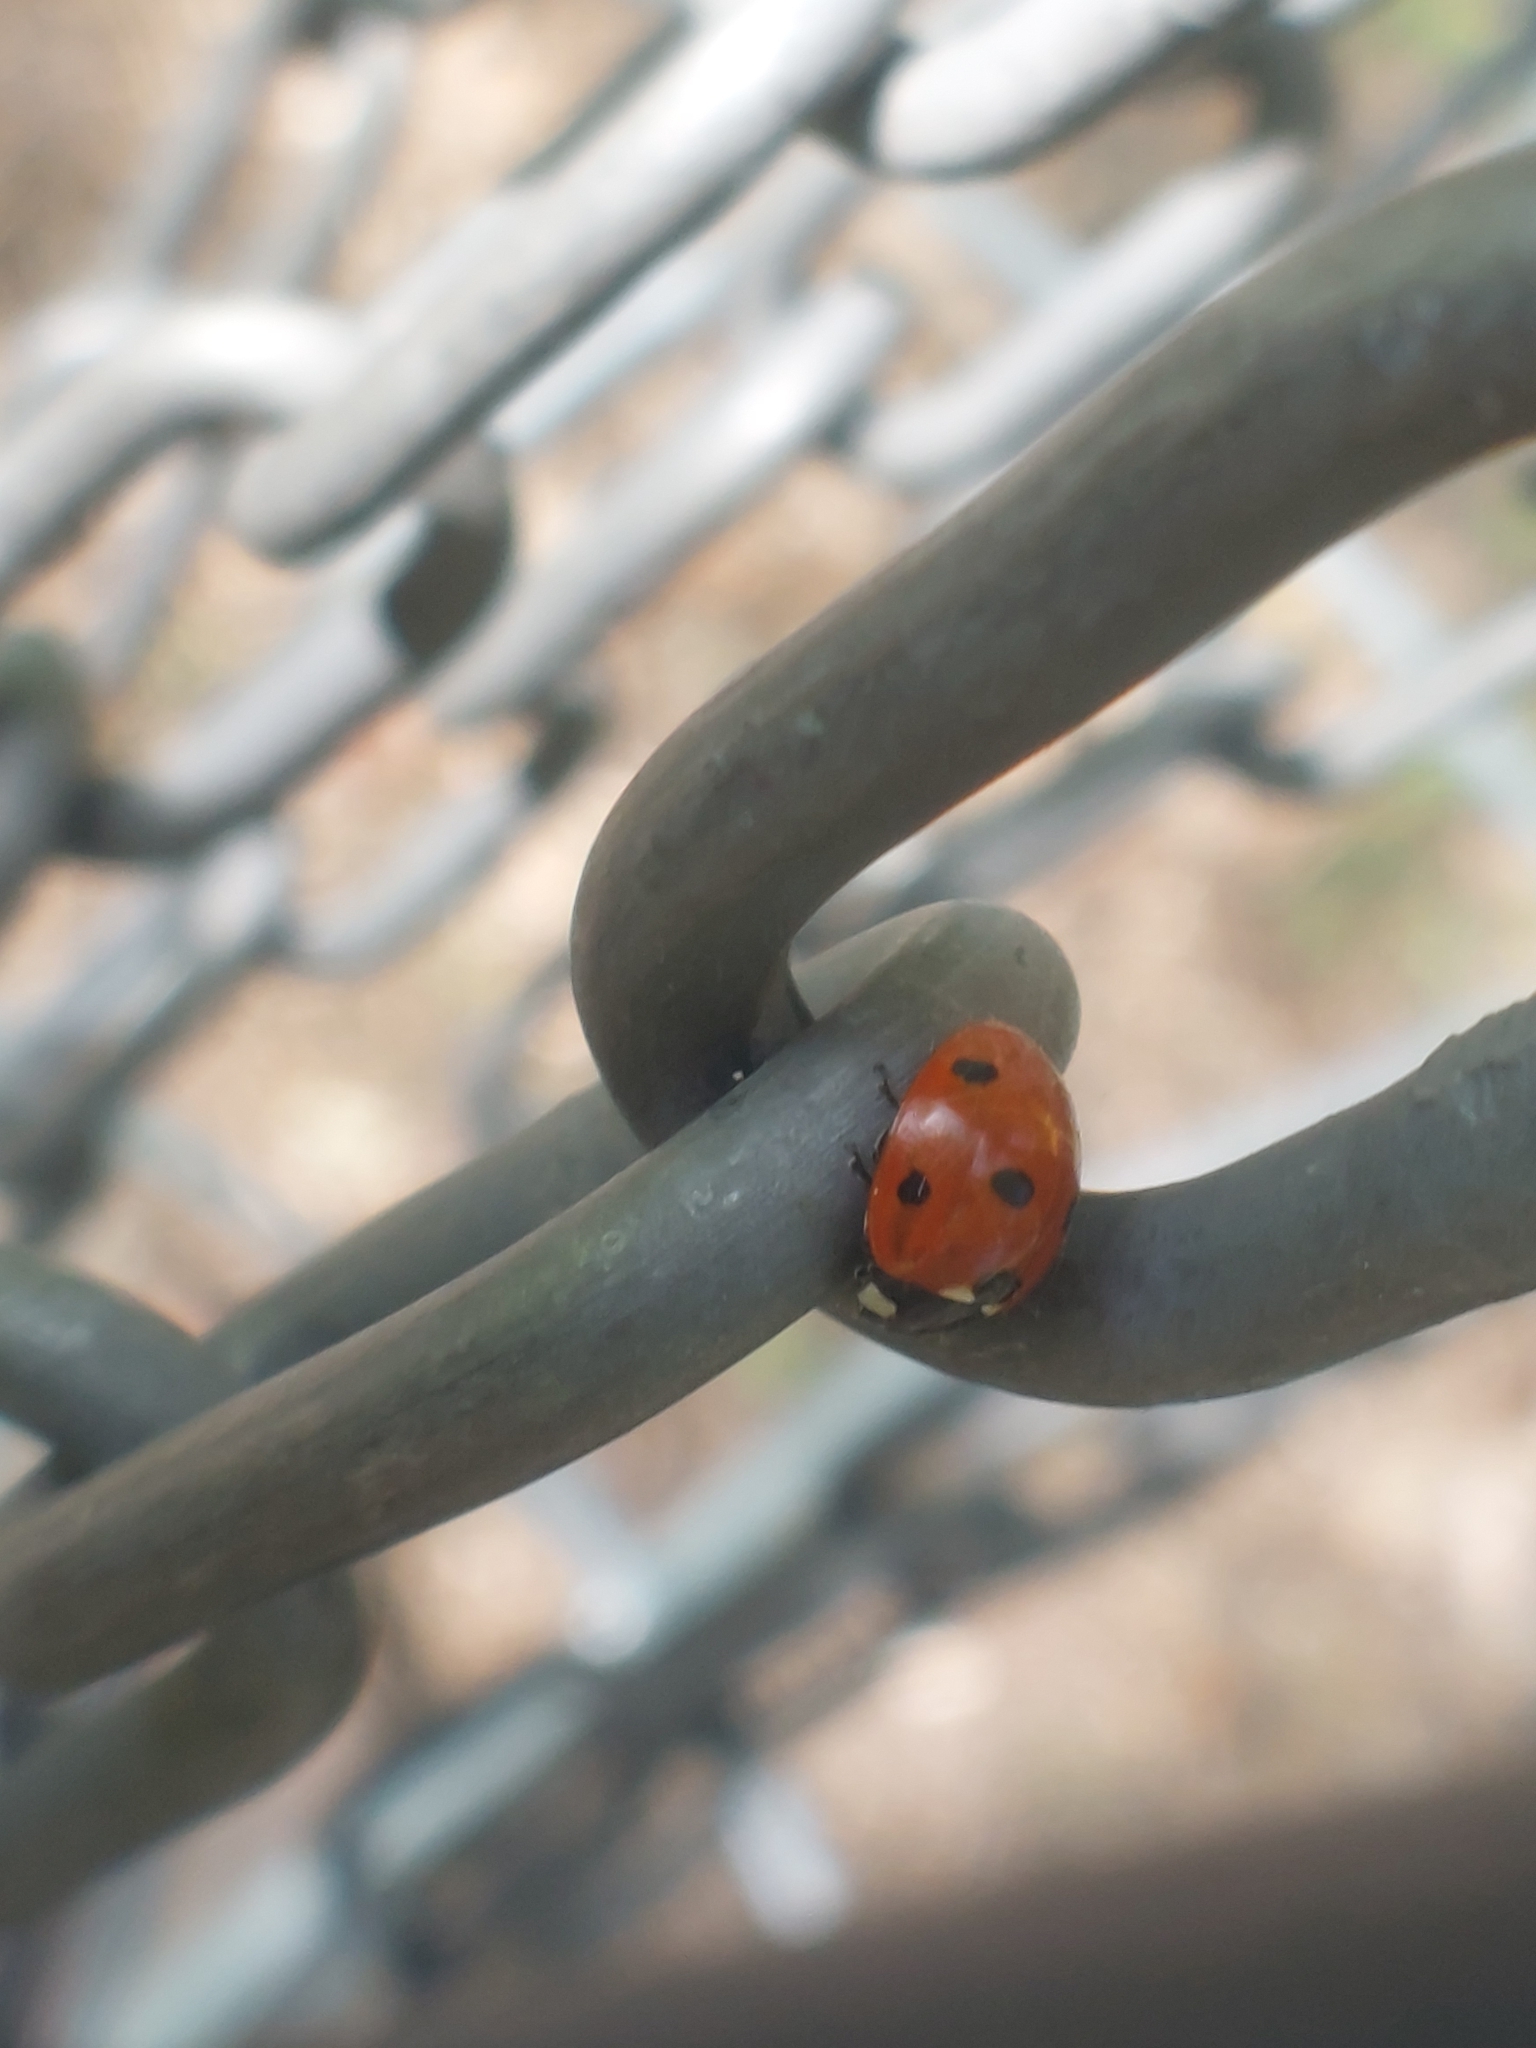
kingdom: Animalia
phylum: Arthropoda
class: Insecta
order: Coleoptera
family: Coccinellidae
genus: Coccinella
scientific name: Coccinella septempunctata
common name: Sevenspotted lady beetle
